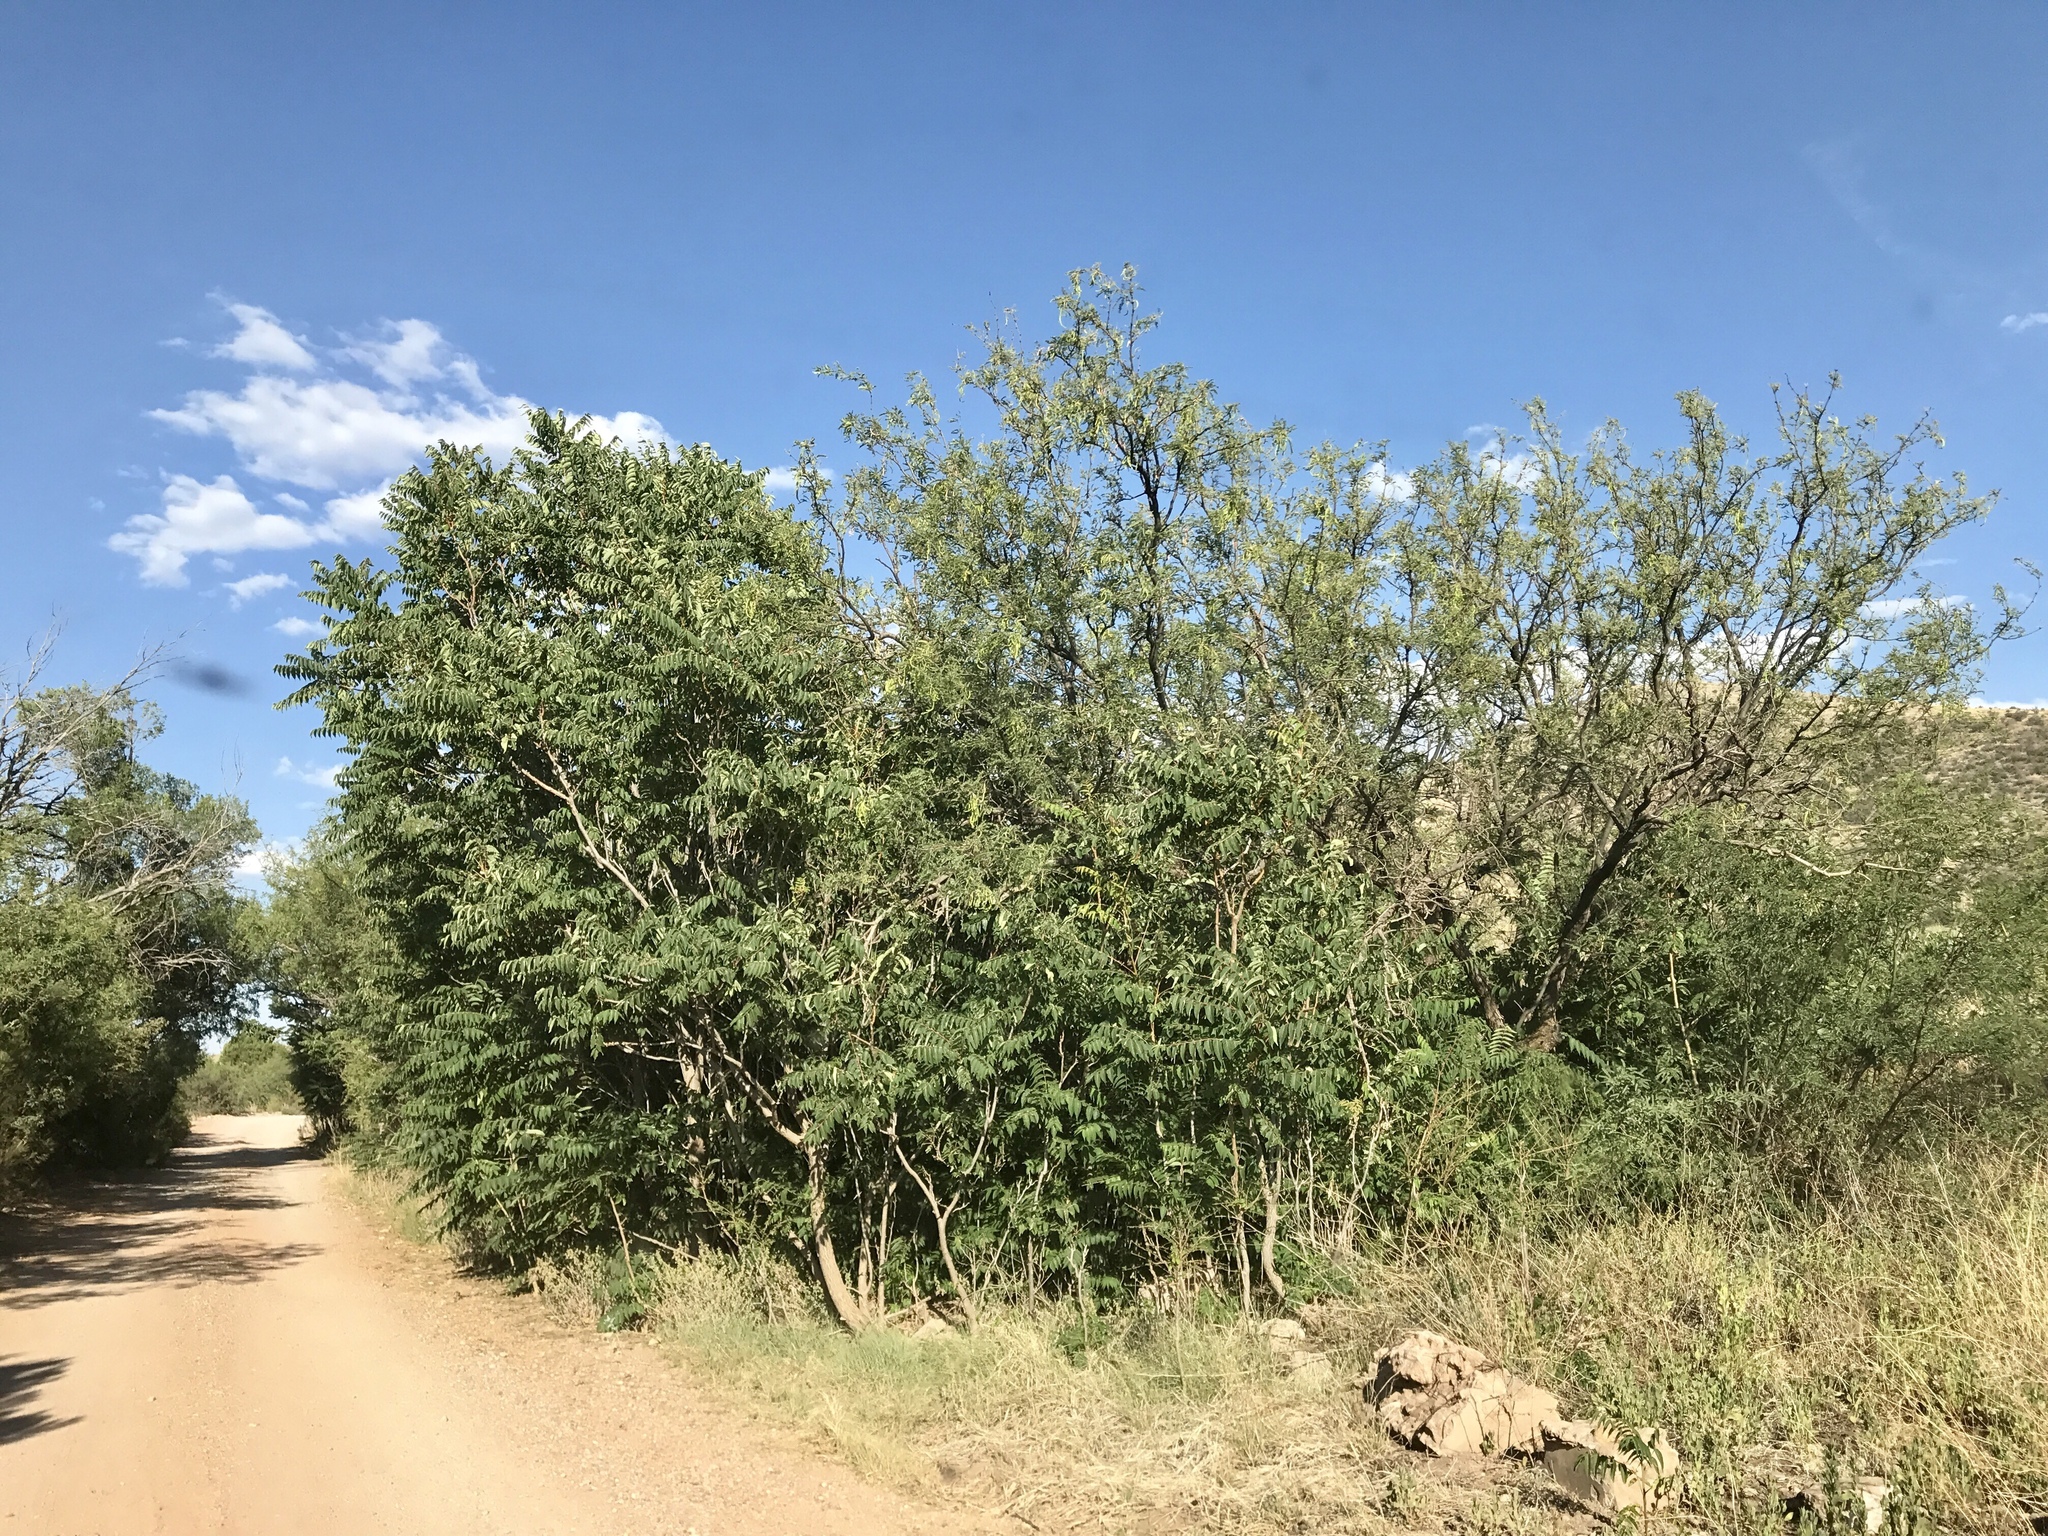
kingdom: Plantae
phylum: Tracheophyta
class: Magnoliopsida
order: Sapindales
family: Anacardiaceae
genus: Rhus
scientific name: Rhus glabra
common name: Scarlet sumac
